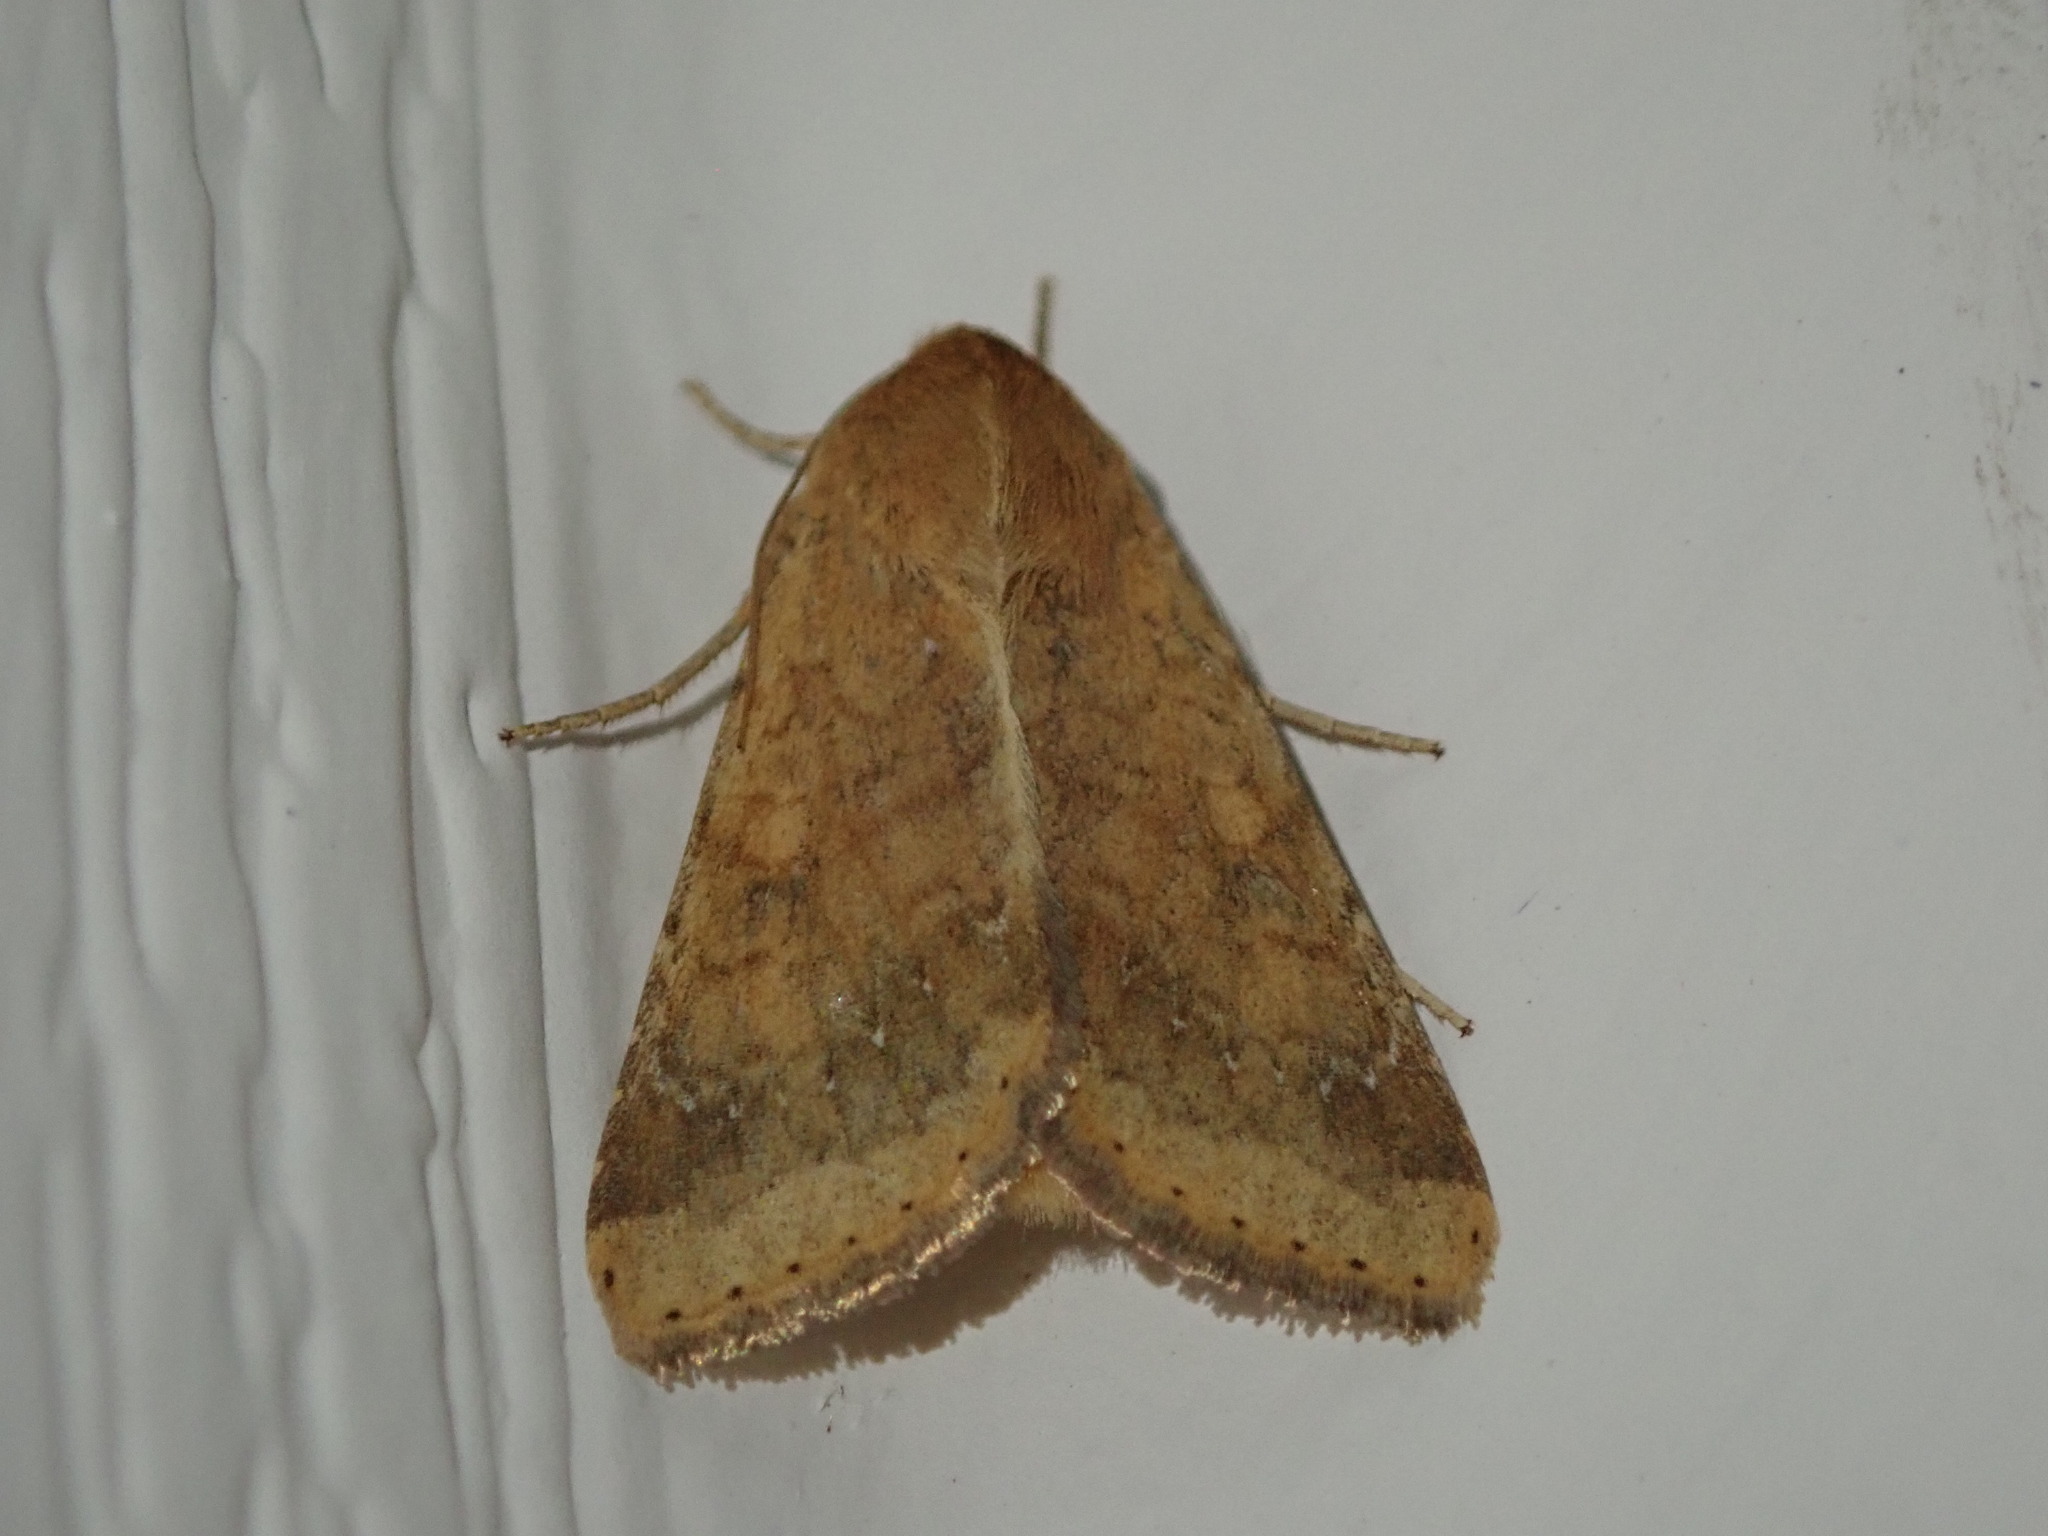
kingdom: Animalia
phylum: Arthropoda
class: Insecta
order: Lepidoptera
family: Noctuidae
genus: Helicoverpa
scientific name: Helicoverpa zea
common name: Bollworm
